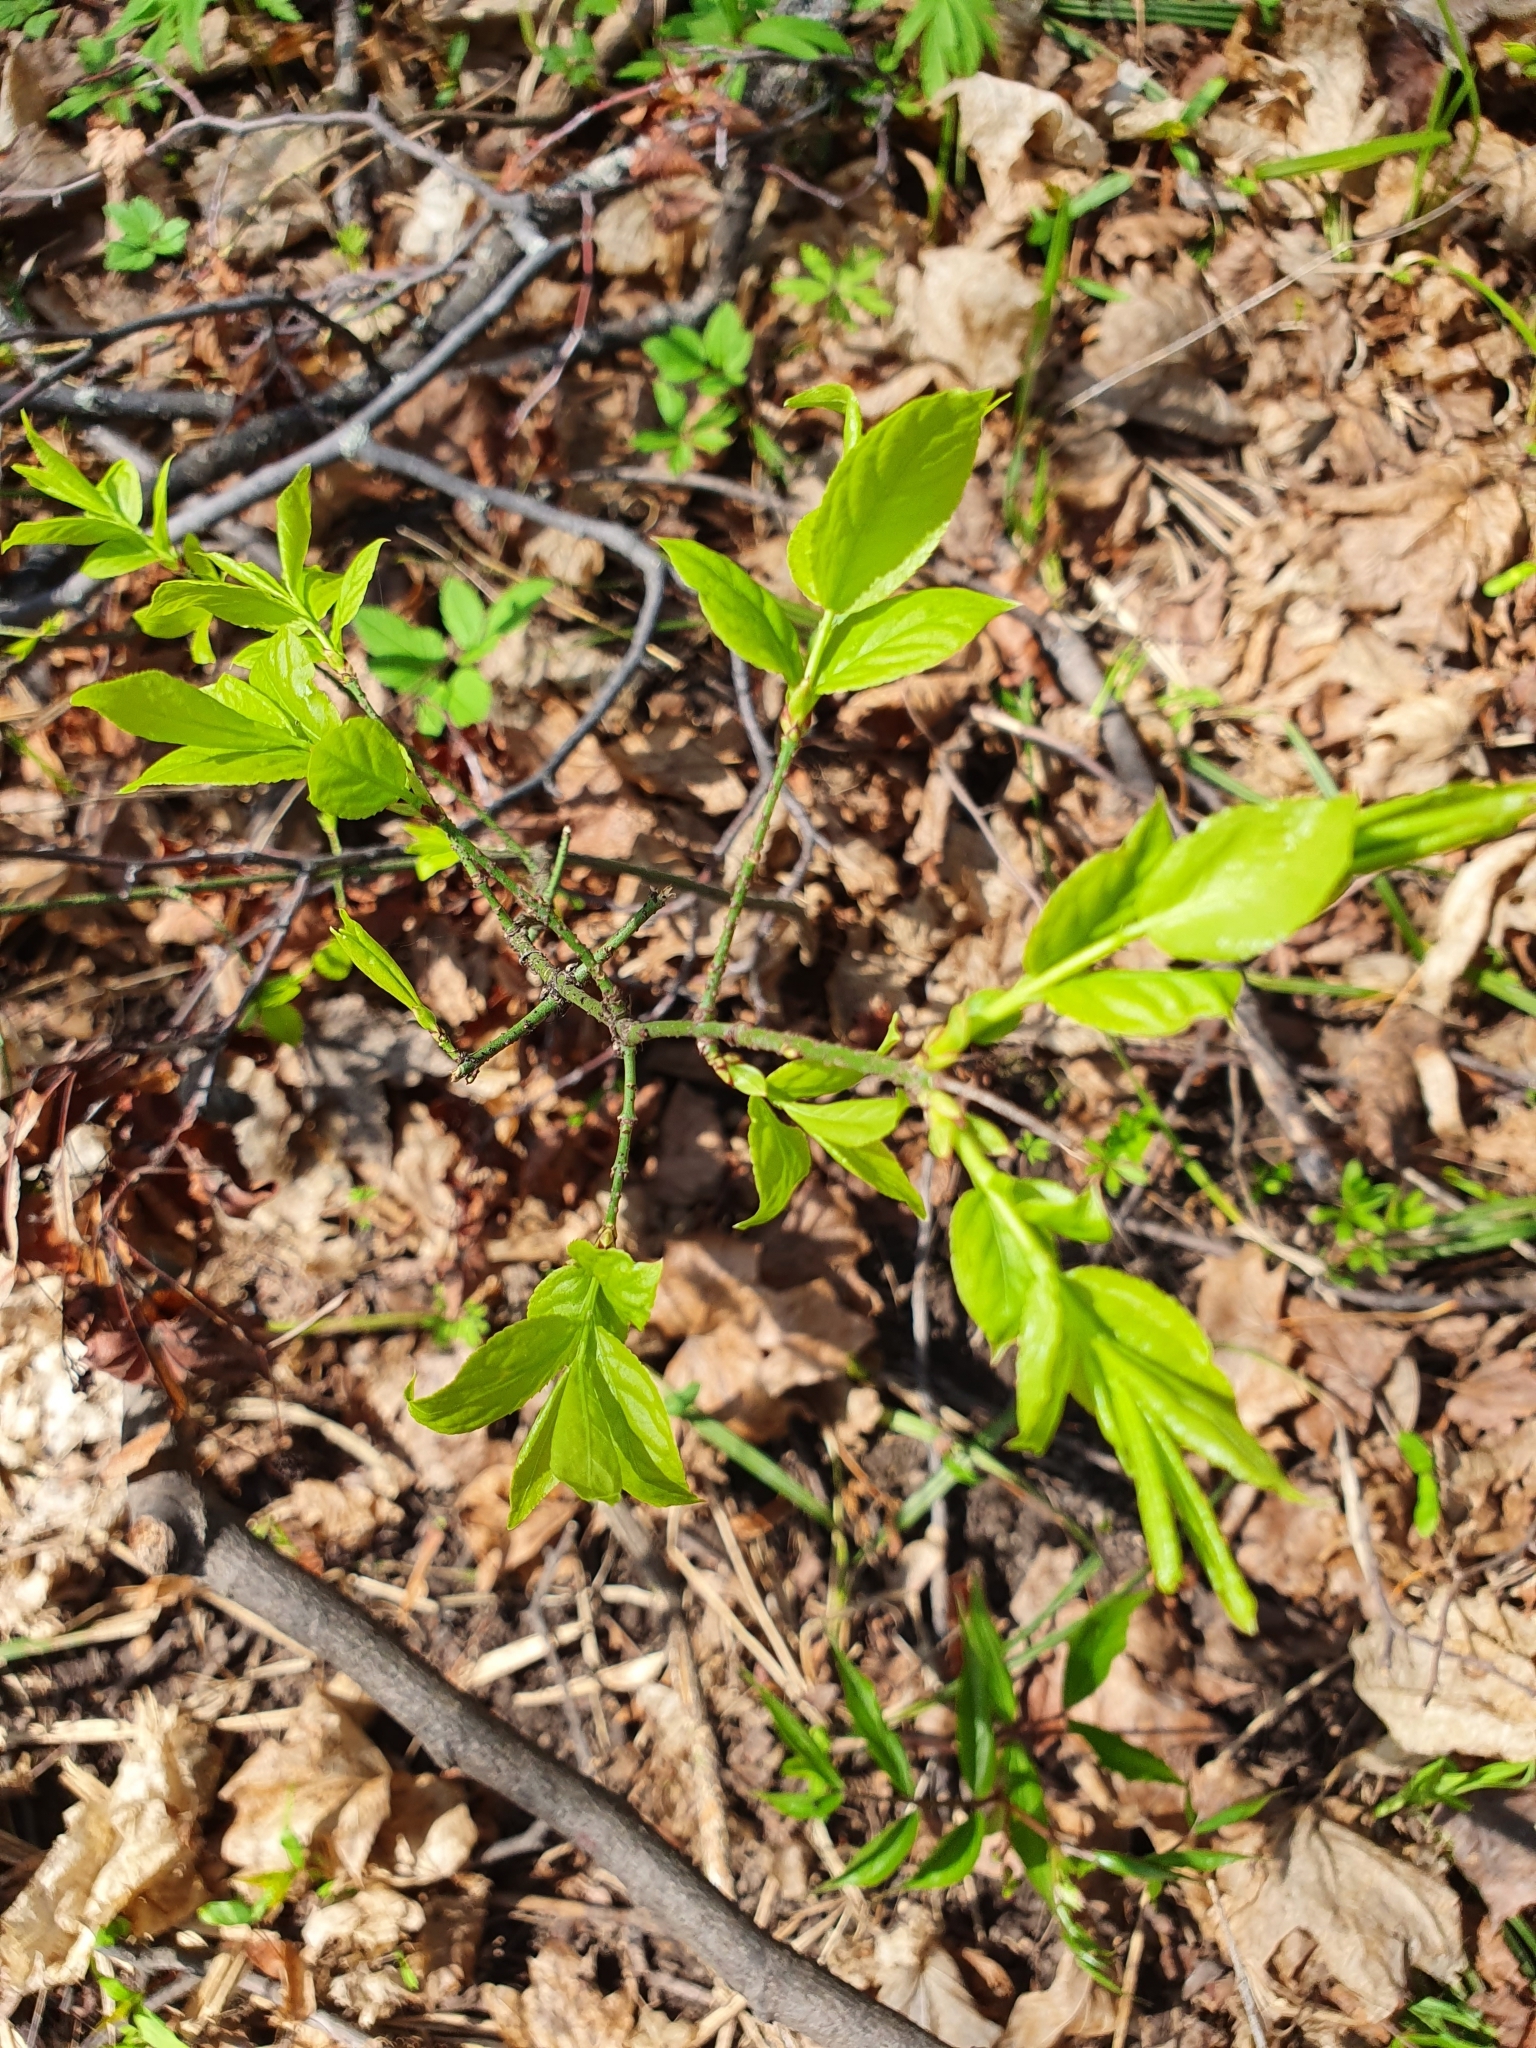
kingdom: Plantae
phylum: Tracheophyta
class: Magnoliopsida
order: Celastrales
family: Celastraceae
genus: Euonymus
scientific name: Euonymus verrucosus
